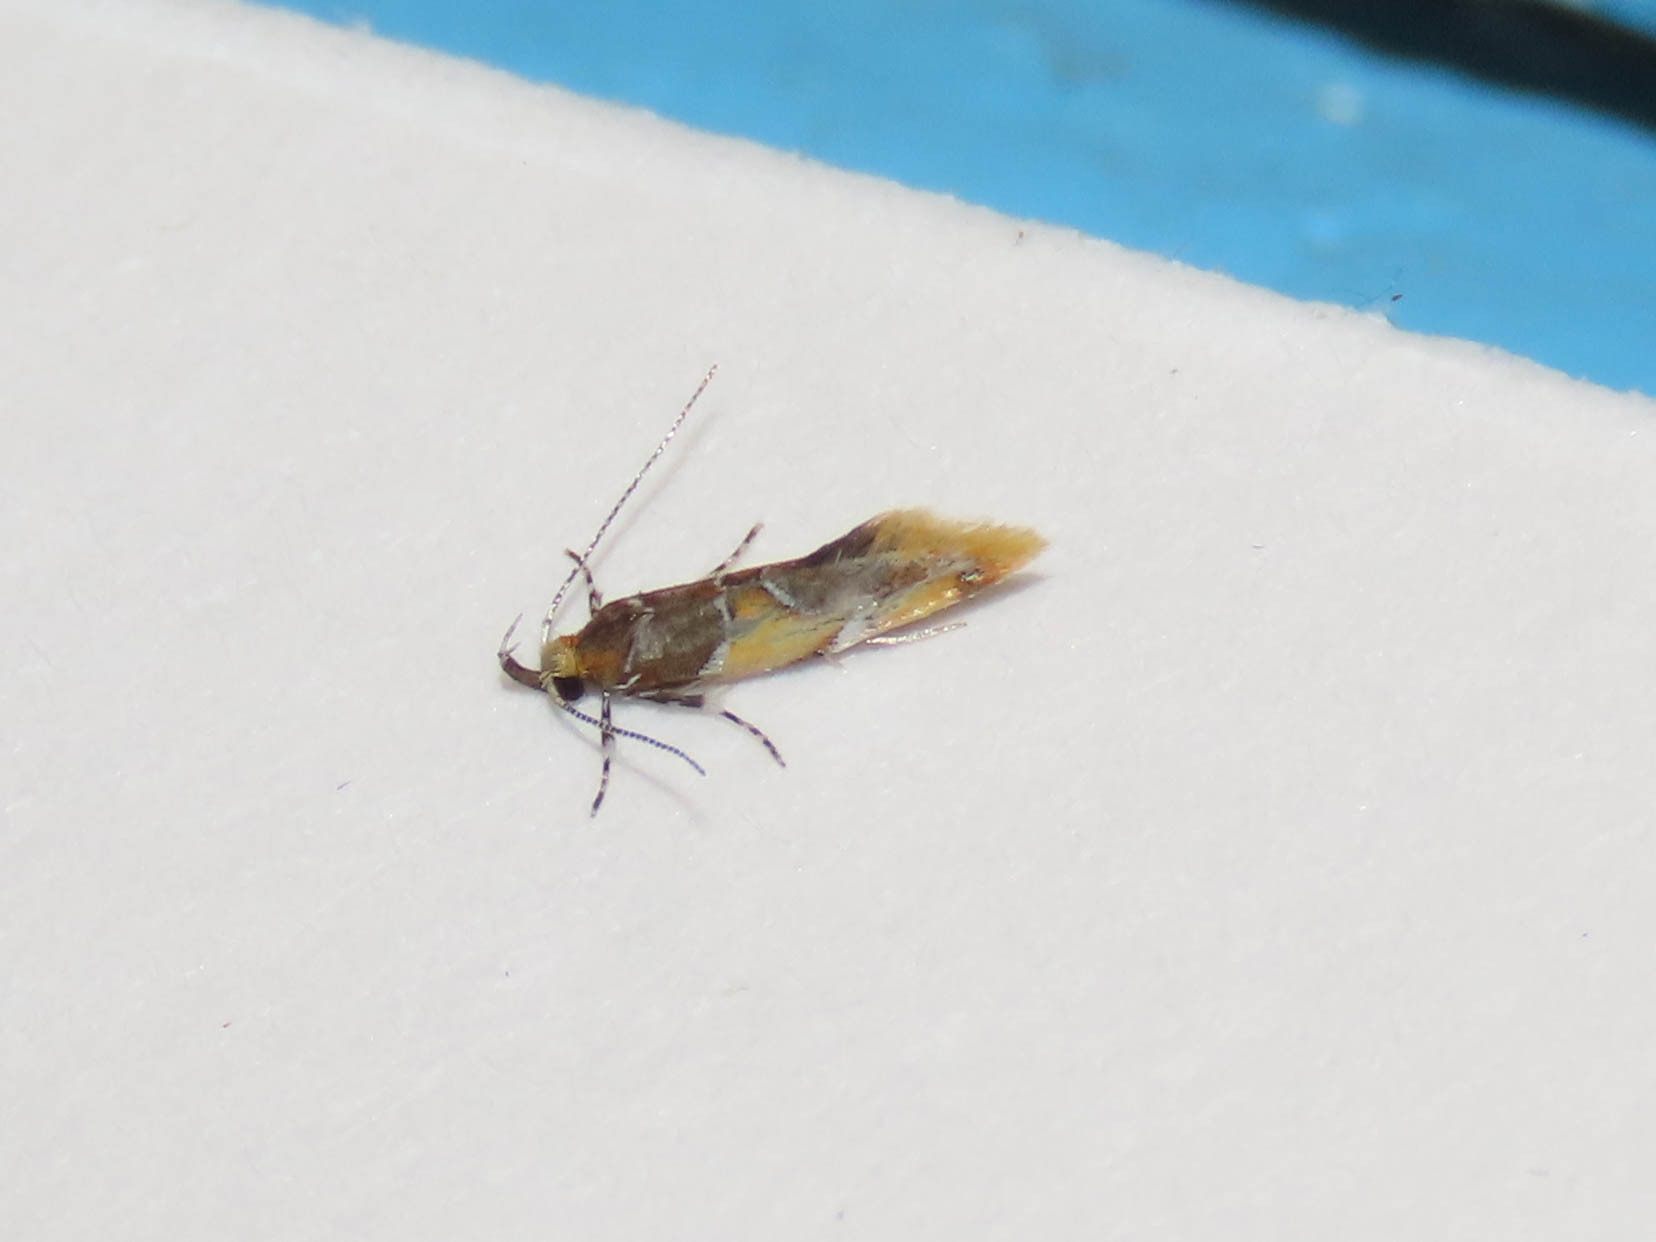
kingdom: Animalia
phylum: Arthropoda
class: Insecta
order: Lepidoptera
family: Oecophoridae
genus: Callima
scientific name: Callima argenticinctella
